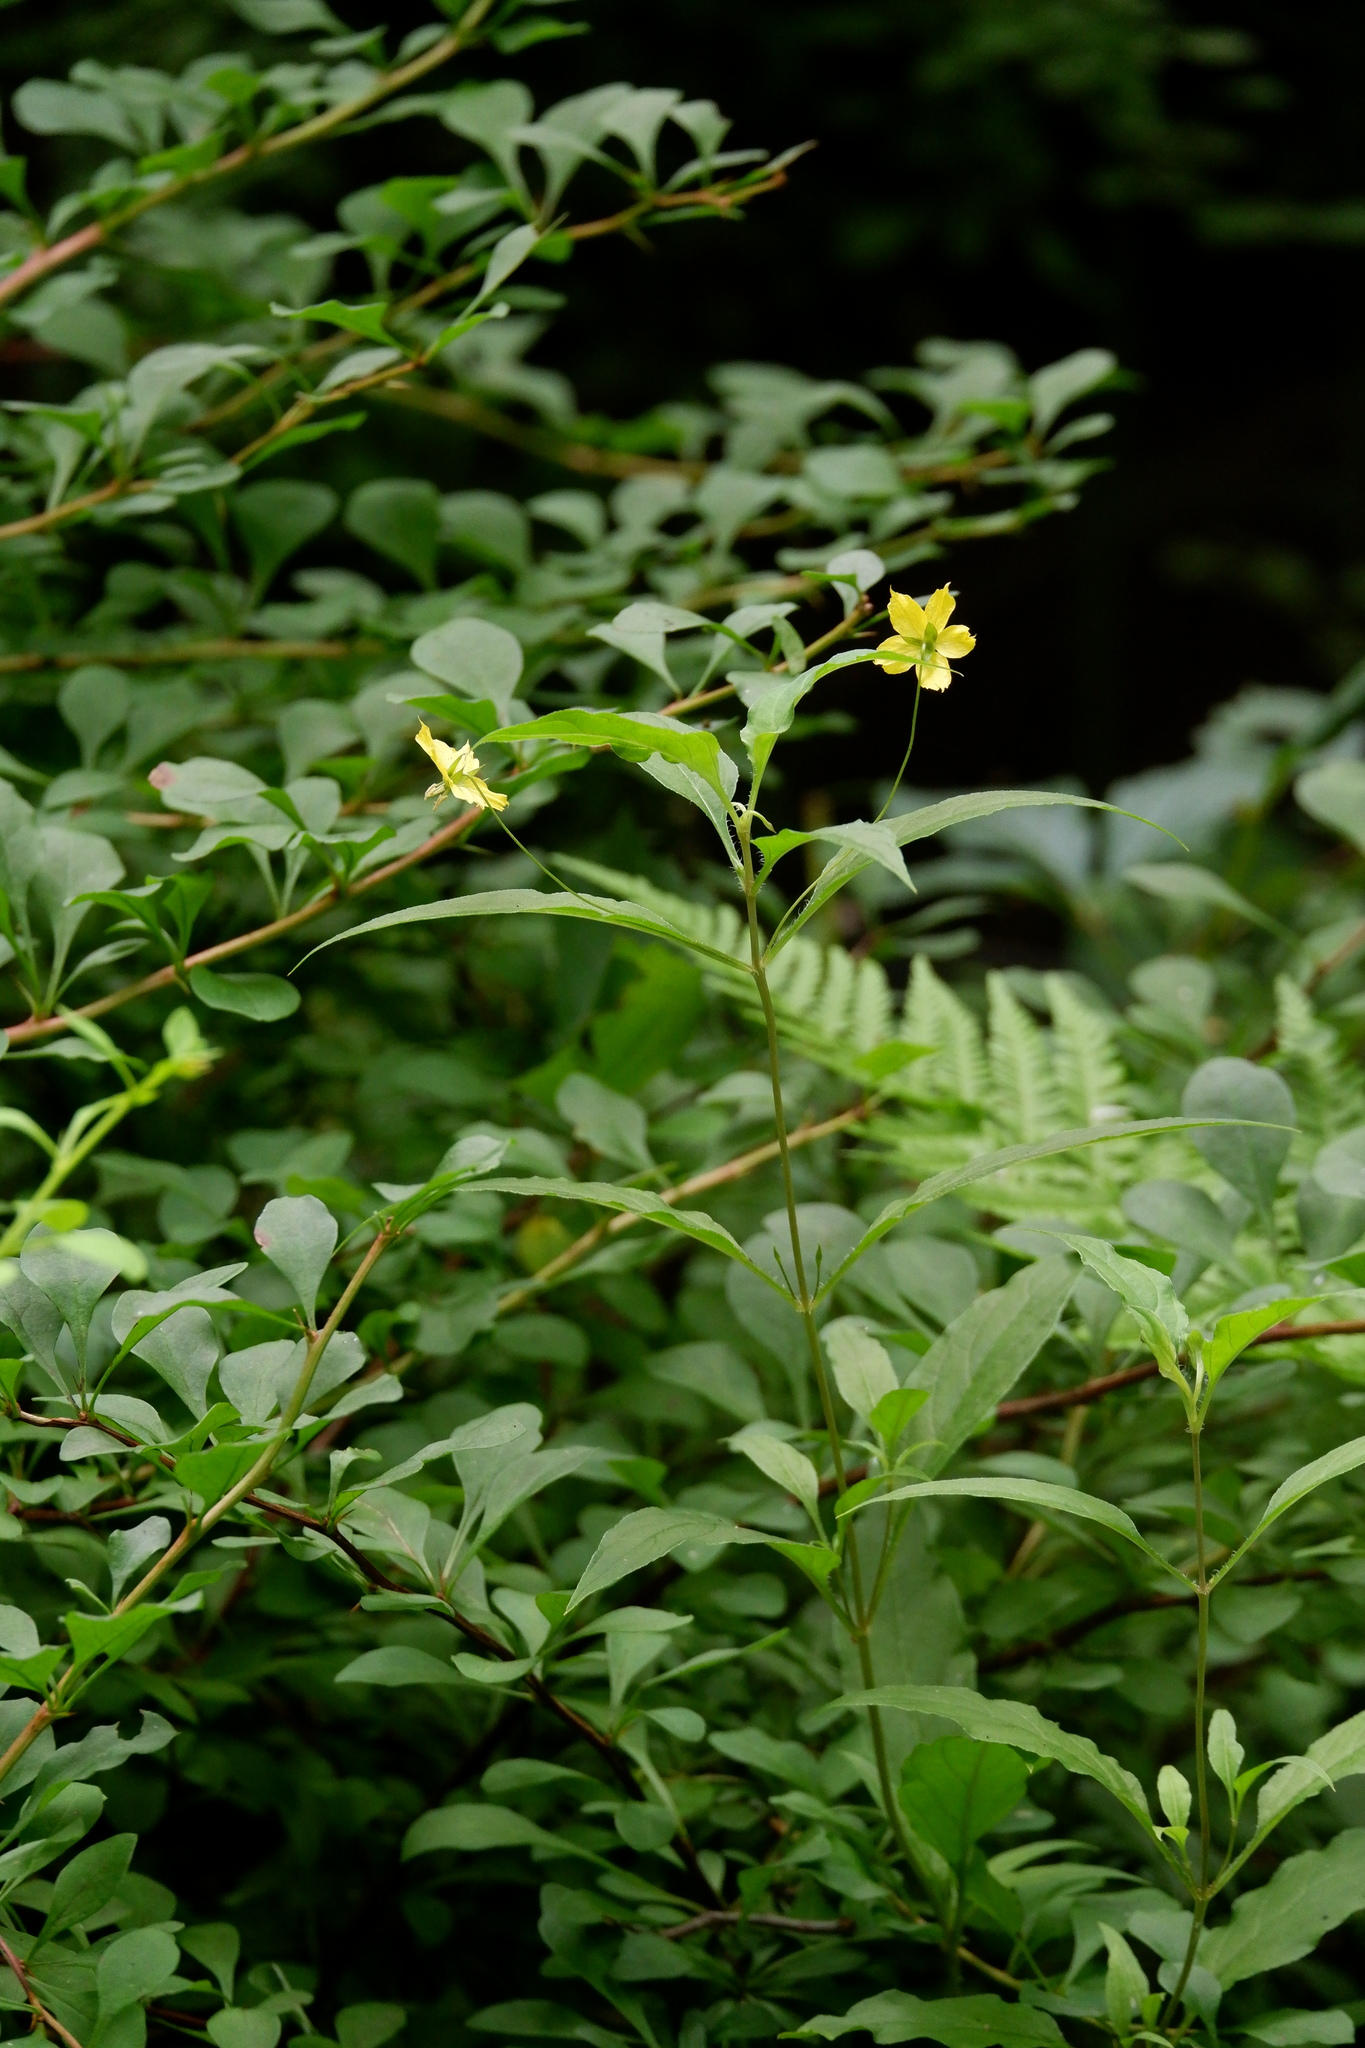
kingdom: Plantae
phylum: Tracheophyta
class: Magnoliopsida
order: Ericales
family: Primulaceae
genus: Lysimachia
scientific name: Lysimachia ciliata
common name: Fringed loosestrife
